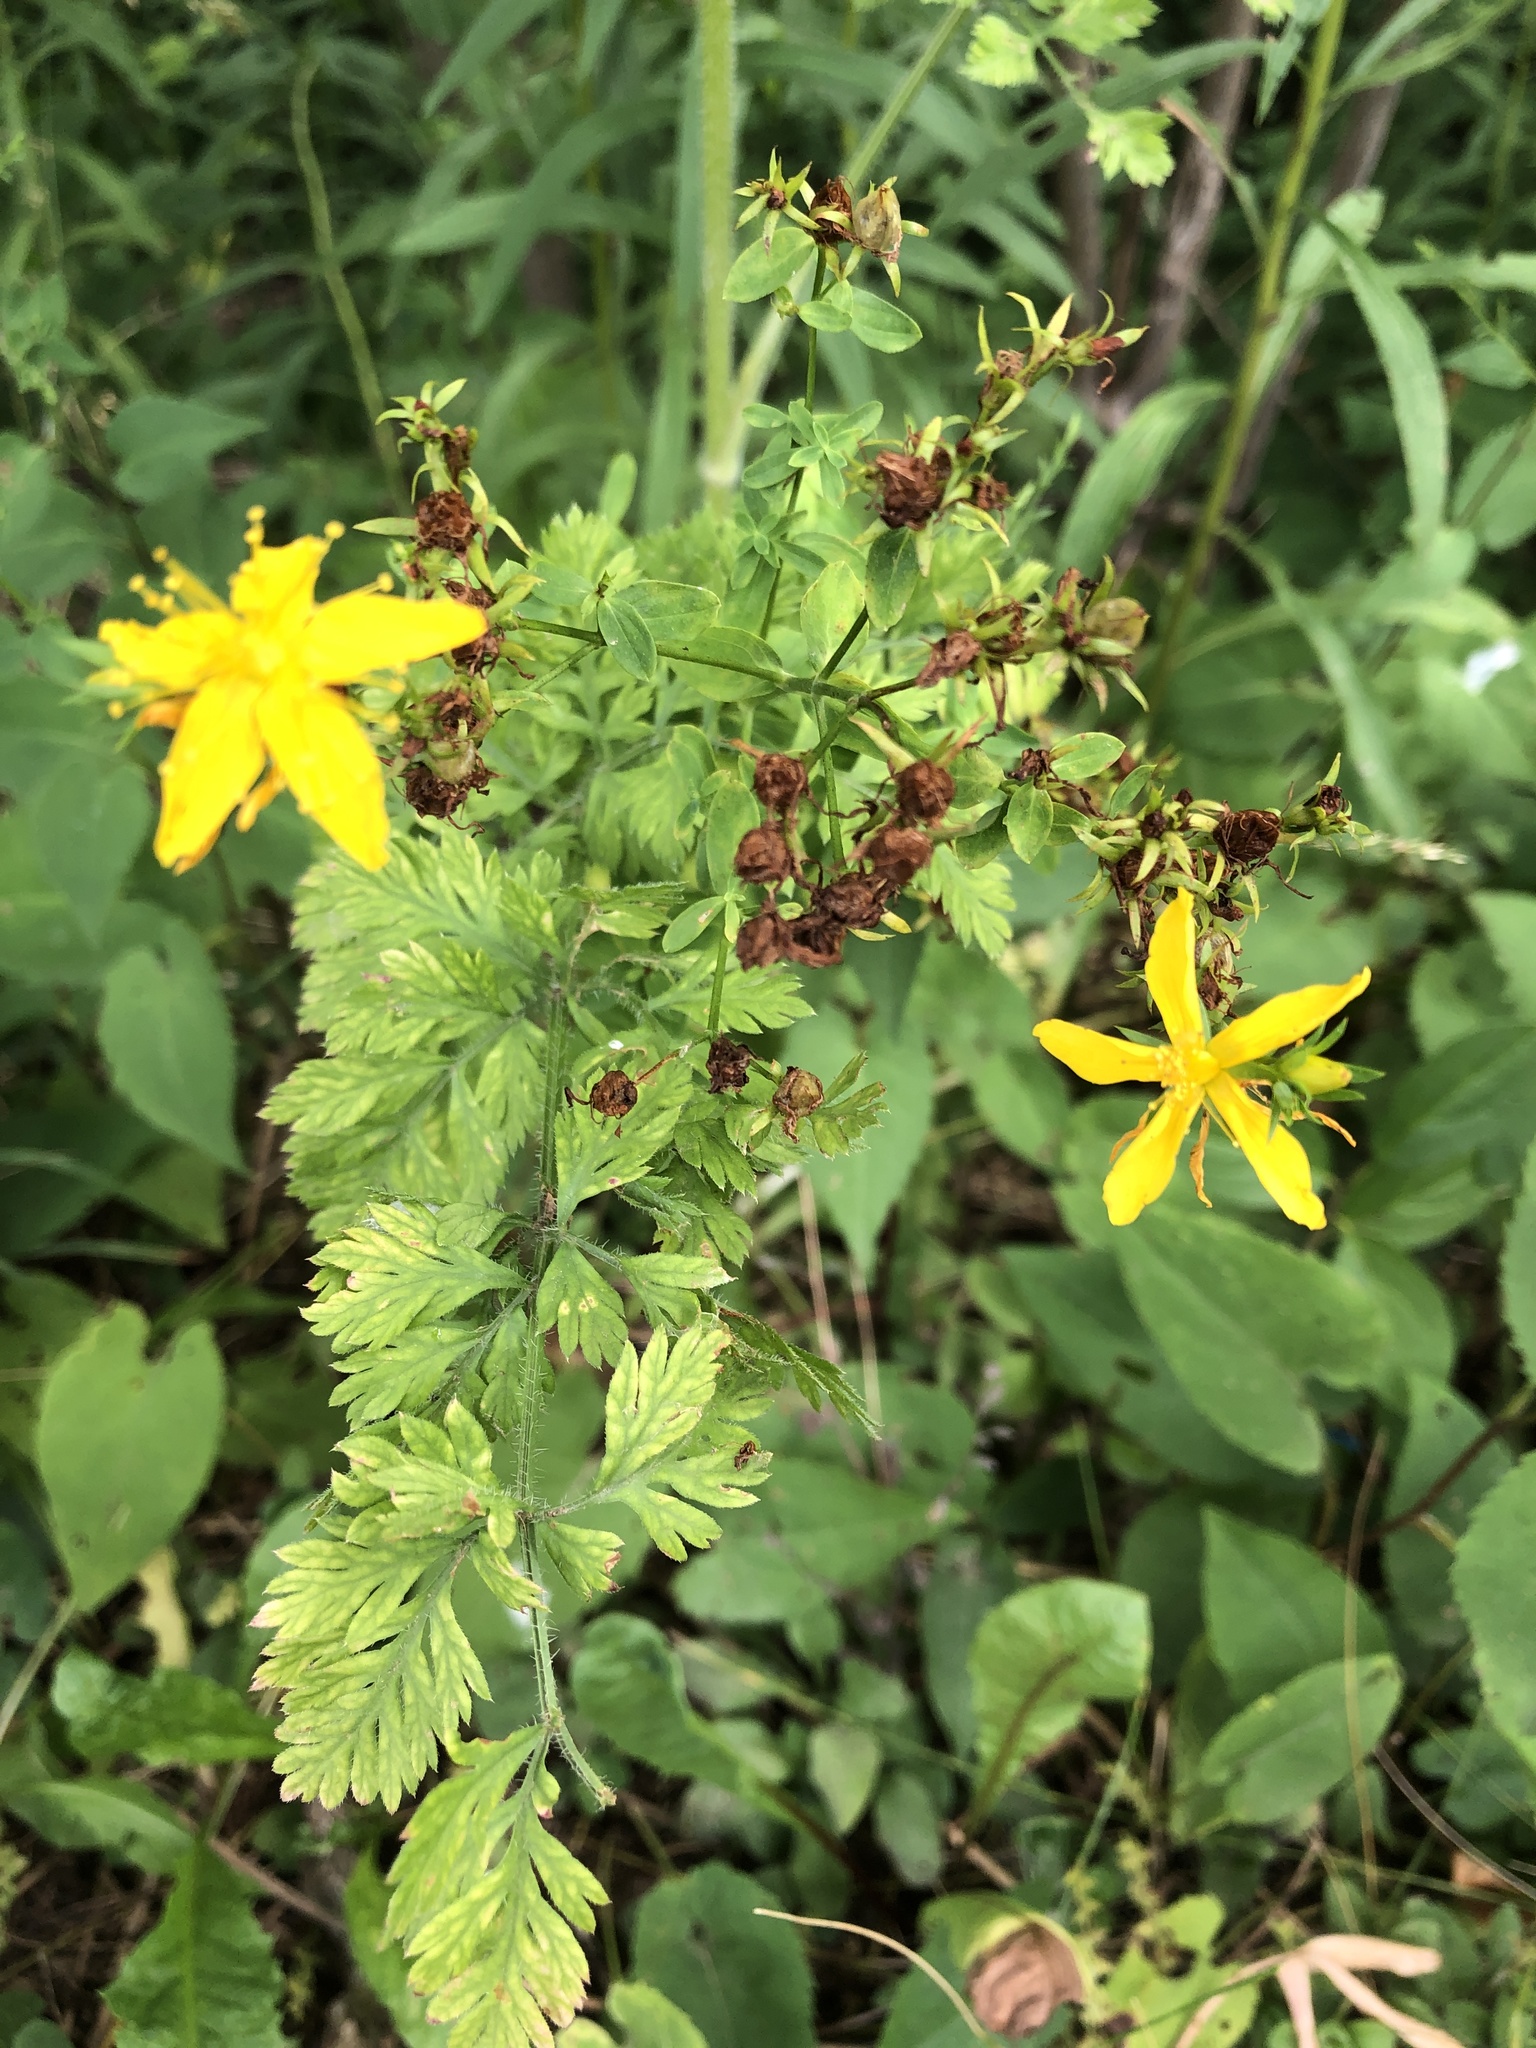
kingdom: Plantae
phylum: Tracheophyta
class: Magnoliopsida
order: Malpighiales
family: Hypericaceae
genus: Hypericum
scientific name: Hypericum perforatum
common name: Common st. johnswort
